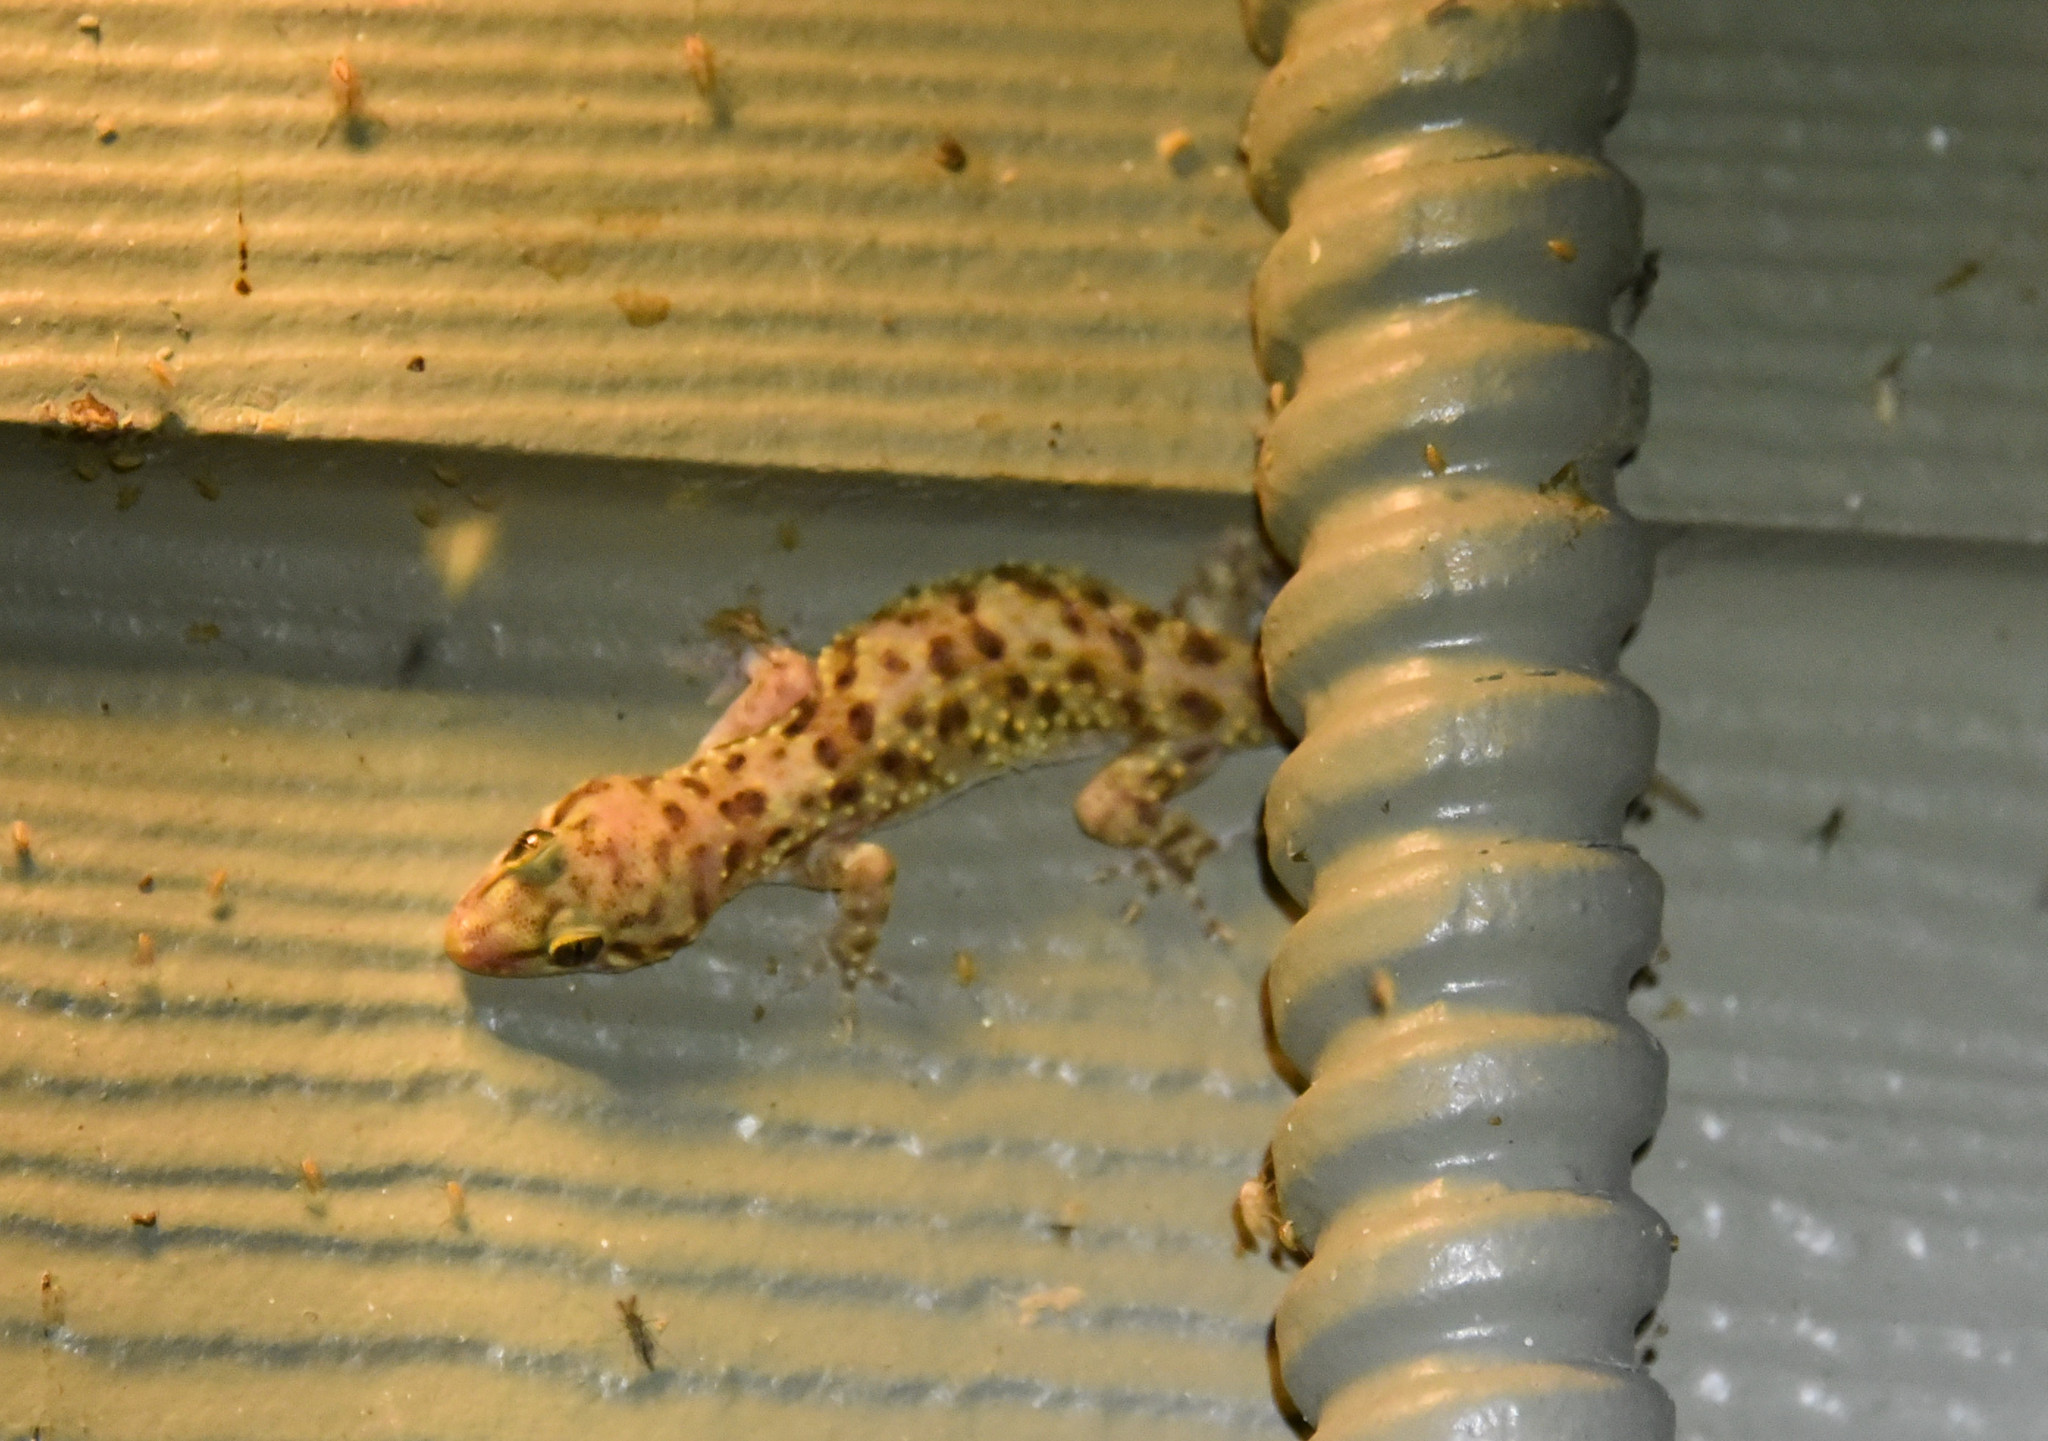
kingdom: Animalia
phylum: Chordata
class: Squamata
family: Gekkonidae
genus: Hemidactylus
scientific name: Hemidactylus turcicus
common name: Turkish gecko
